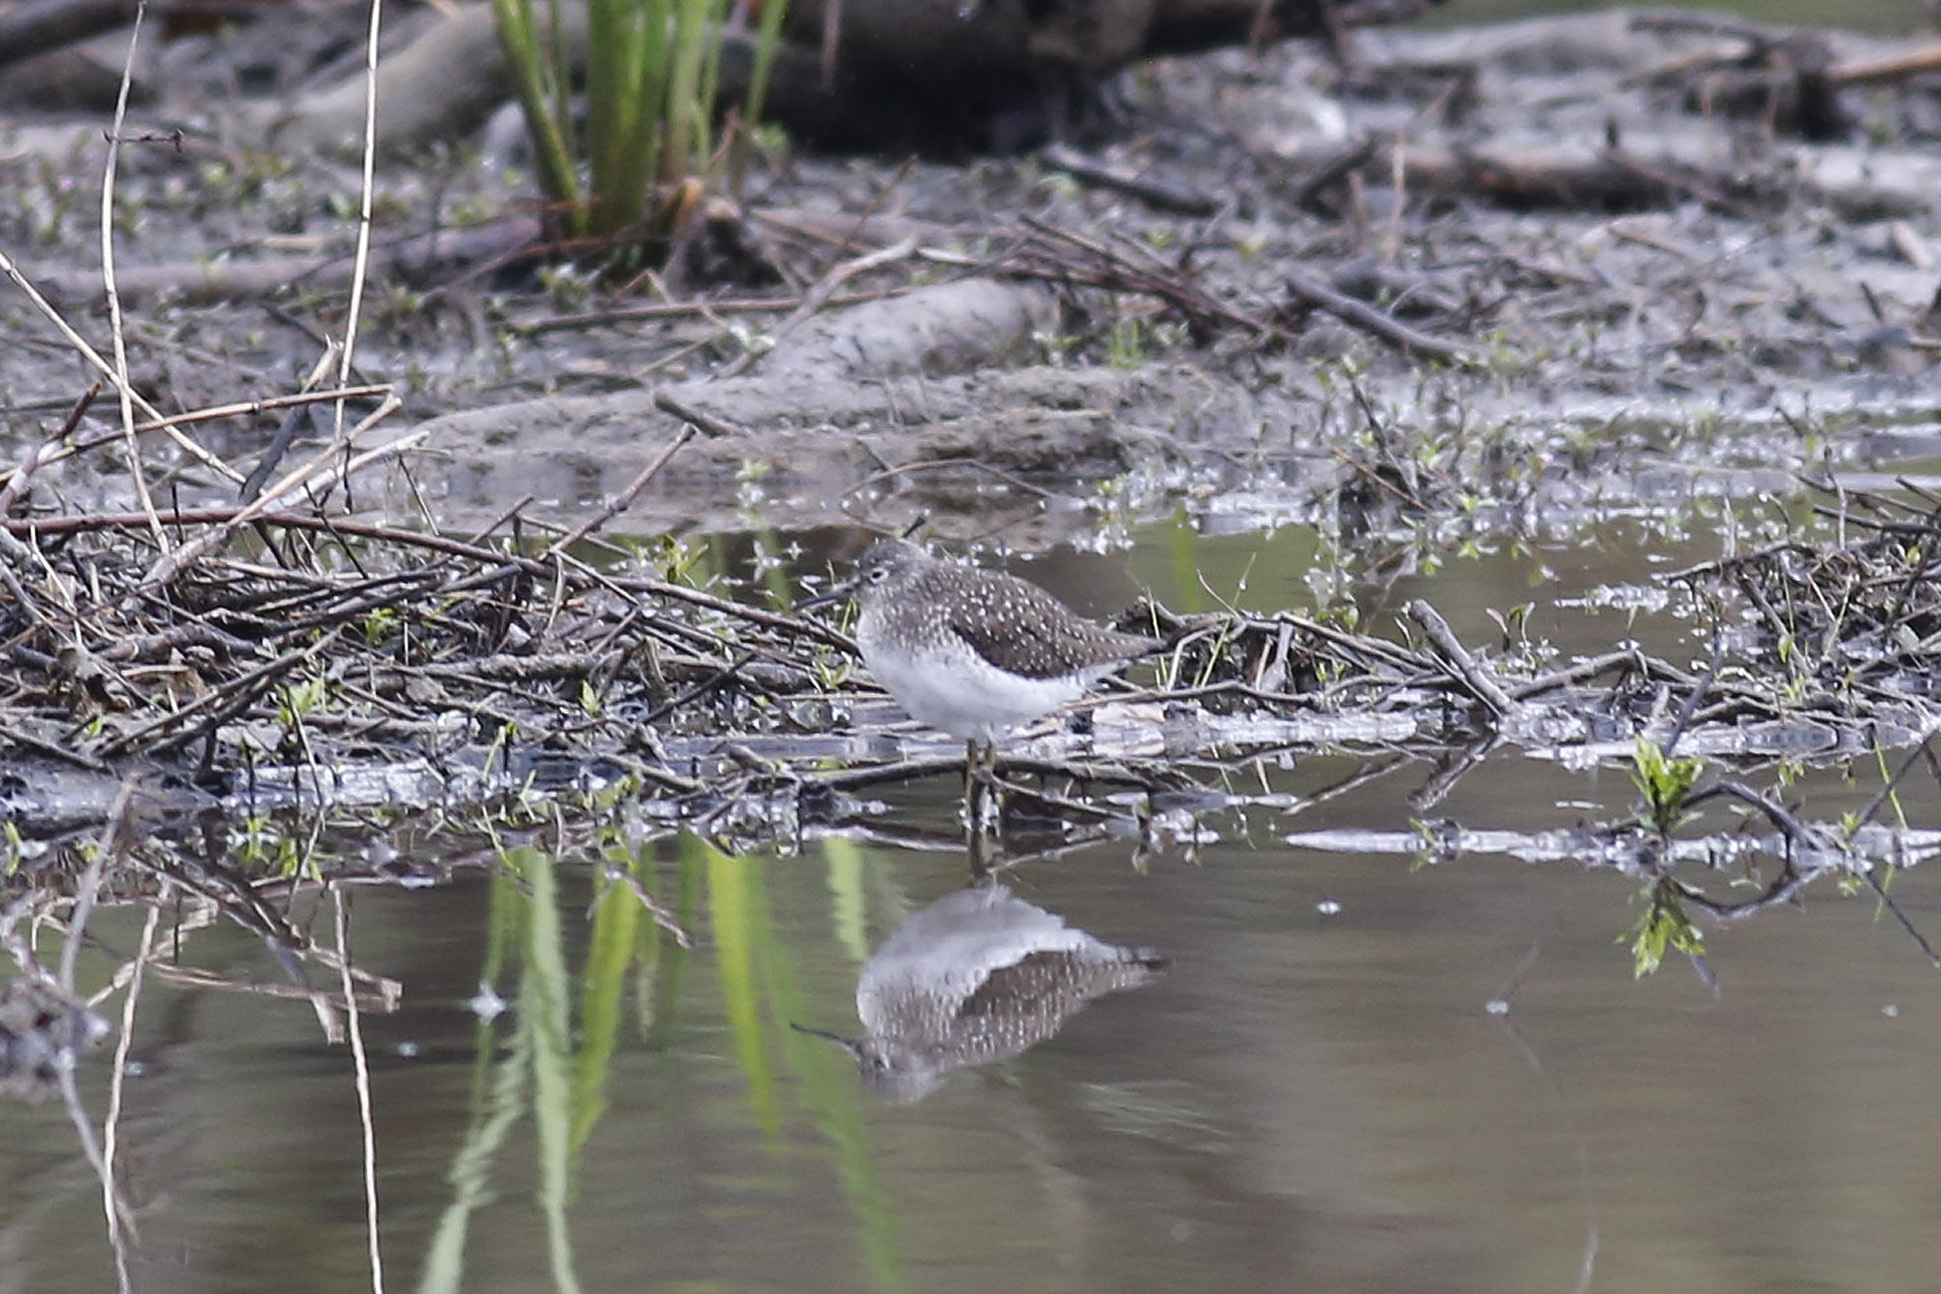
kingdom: Animalia
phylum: Chordata
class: Aves
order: Charadriiformes
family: Scolopacidae
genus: Tringa
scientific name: Tringa solitaria
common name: Solitary sandpiper
